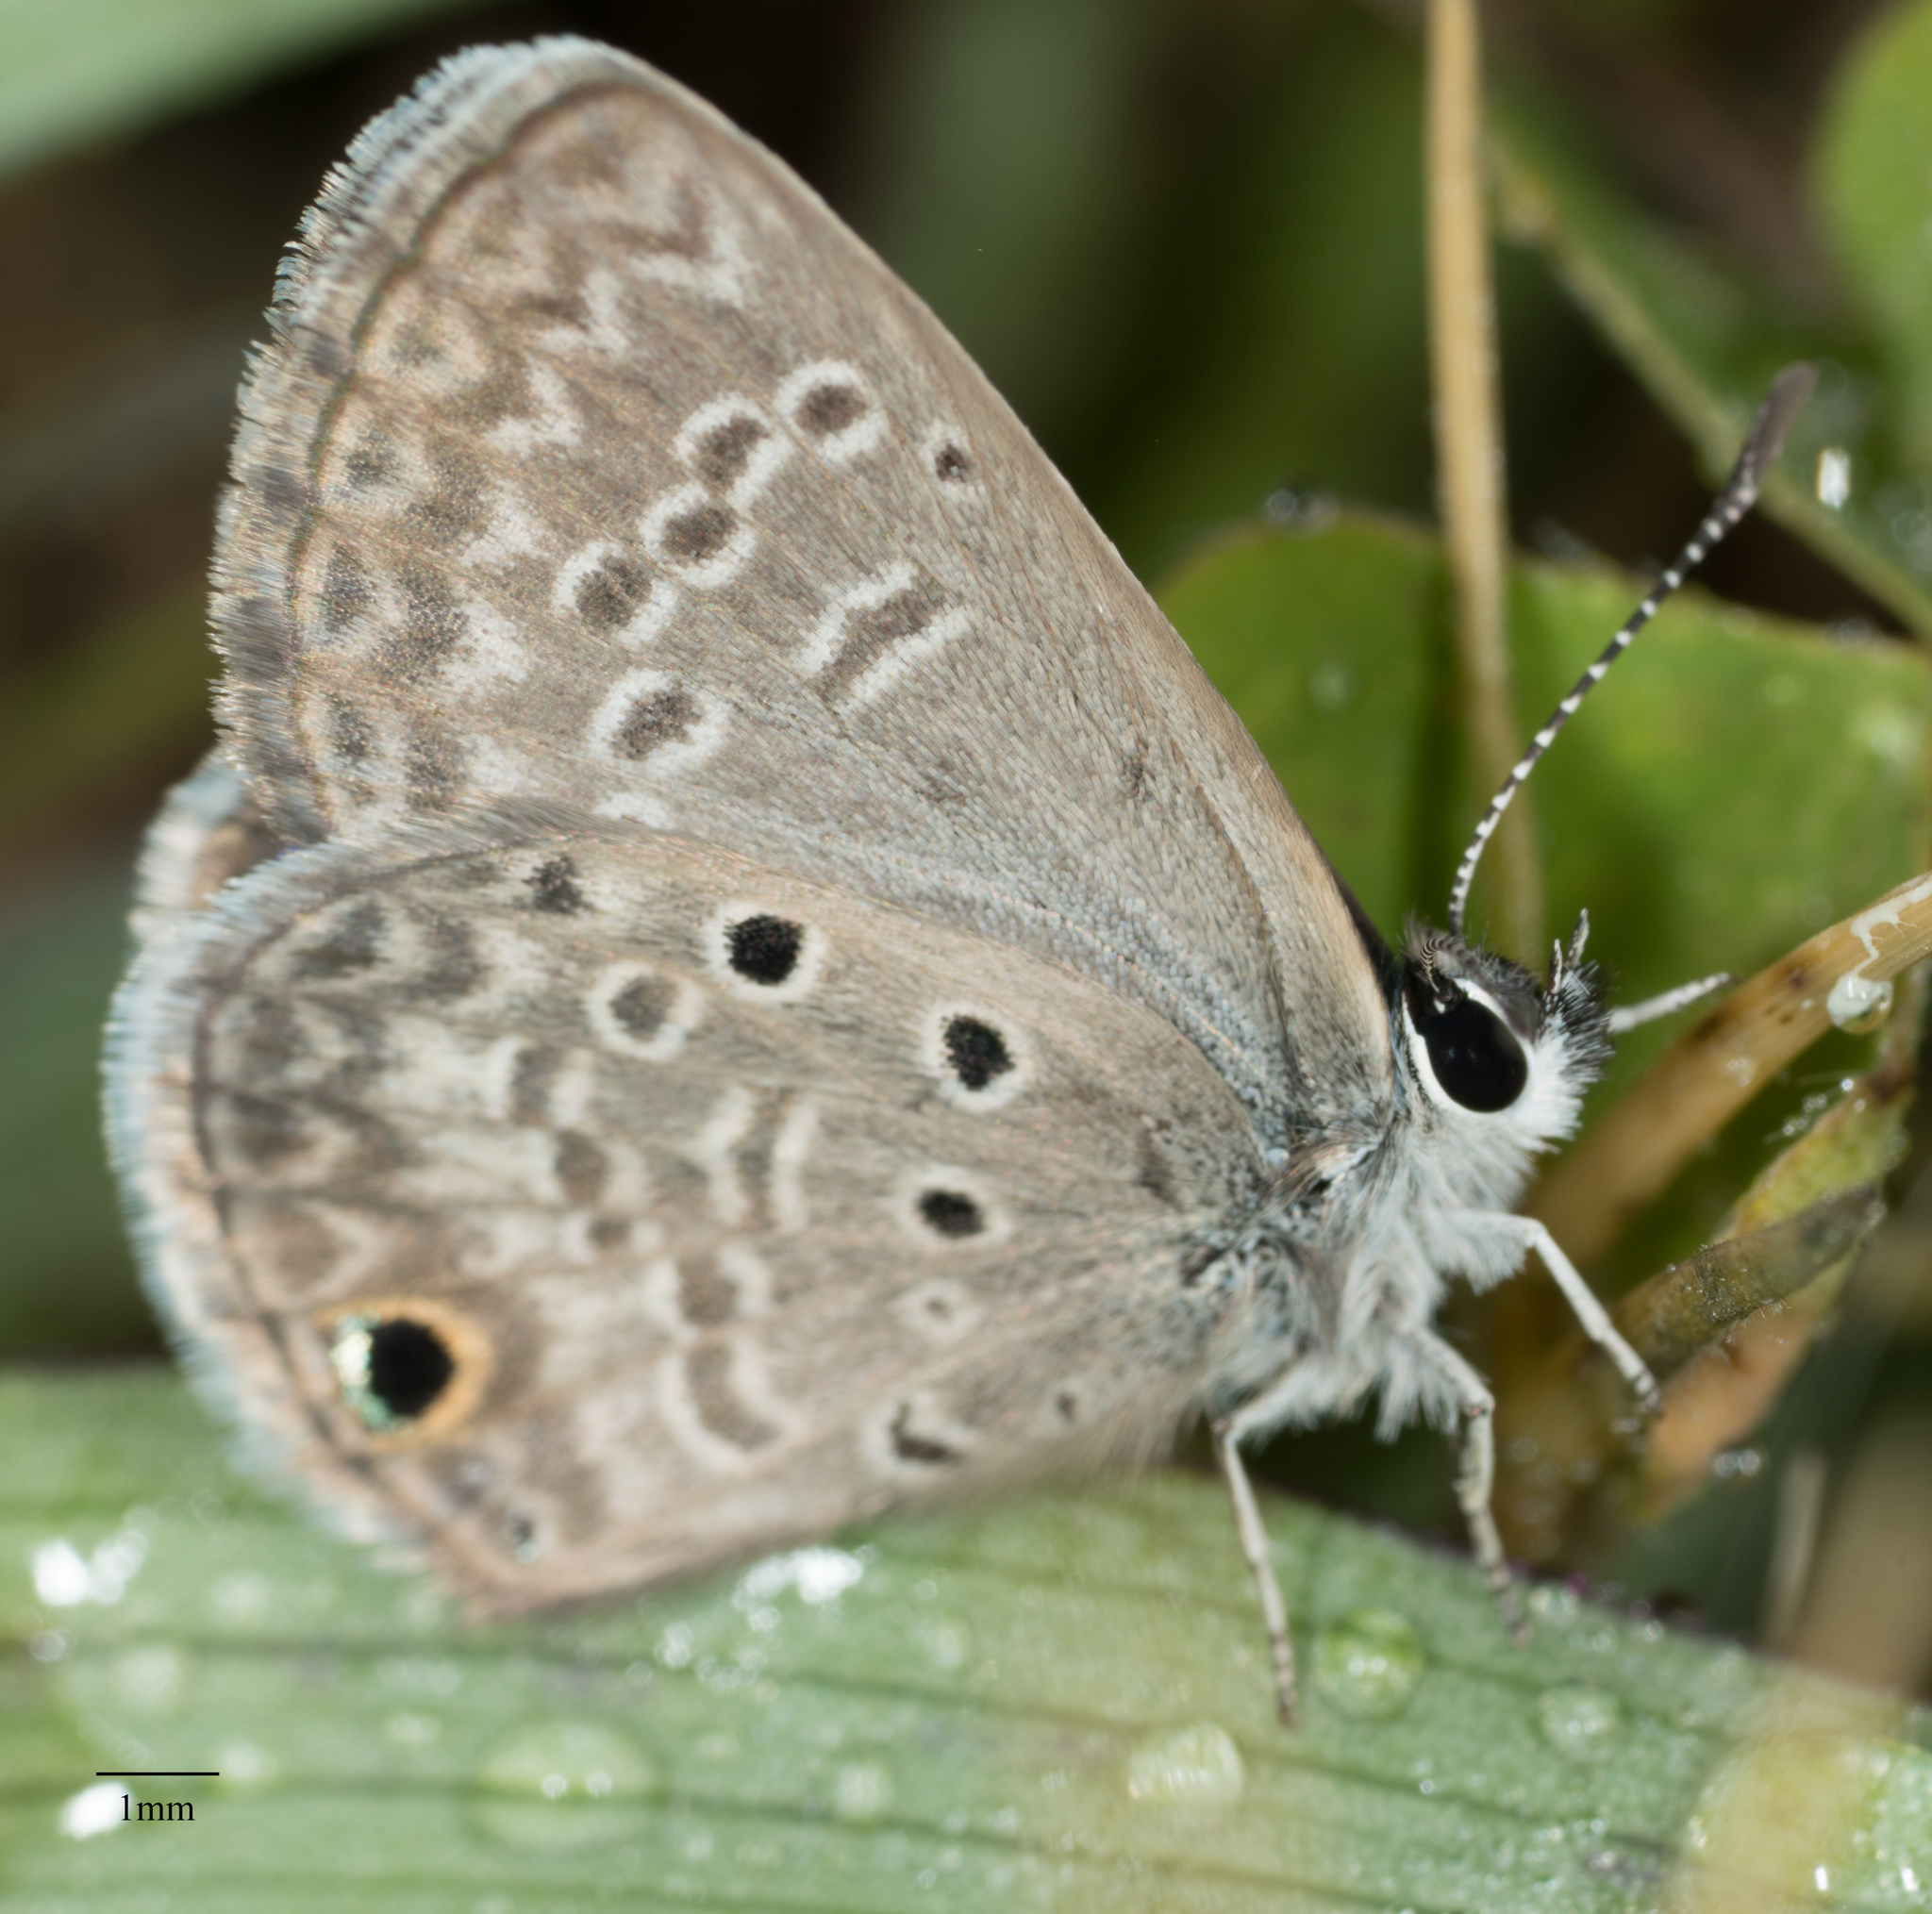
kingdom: Animalia
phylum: Arthropoda
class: Insecta
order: Lepidoptera
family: Lycaenidae
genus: Hemiargus
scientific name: Hemiargus ceraunus
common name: Ceraunus blue
